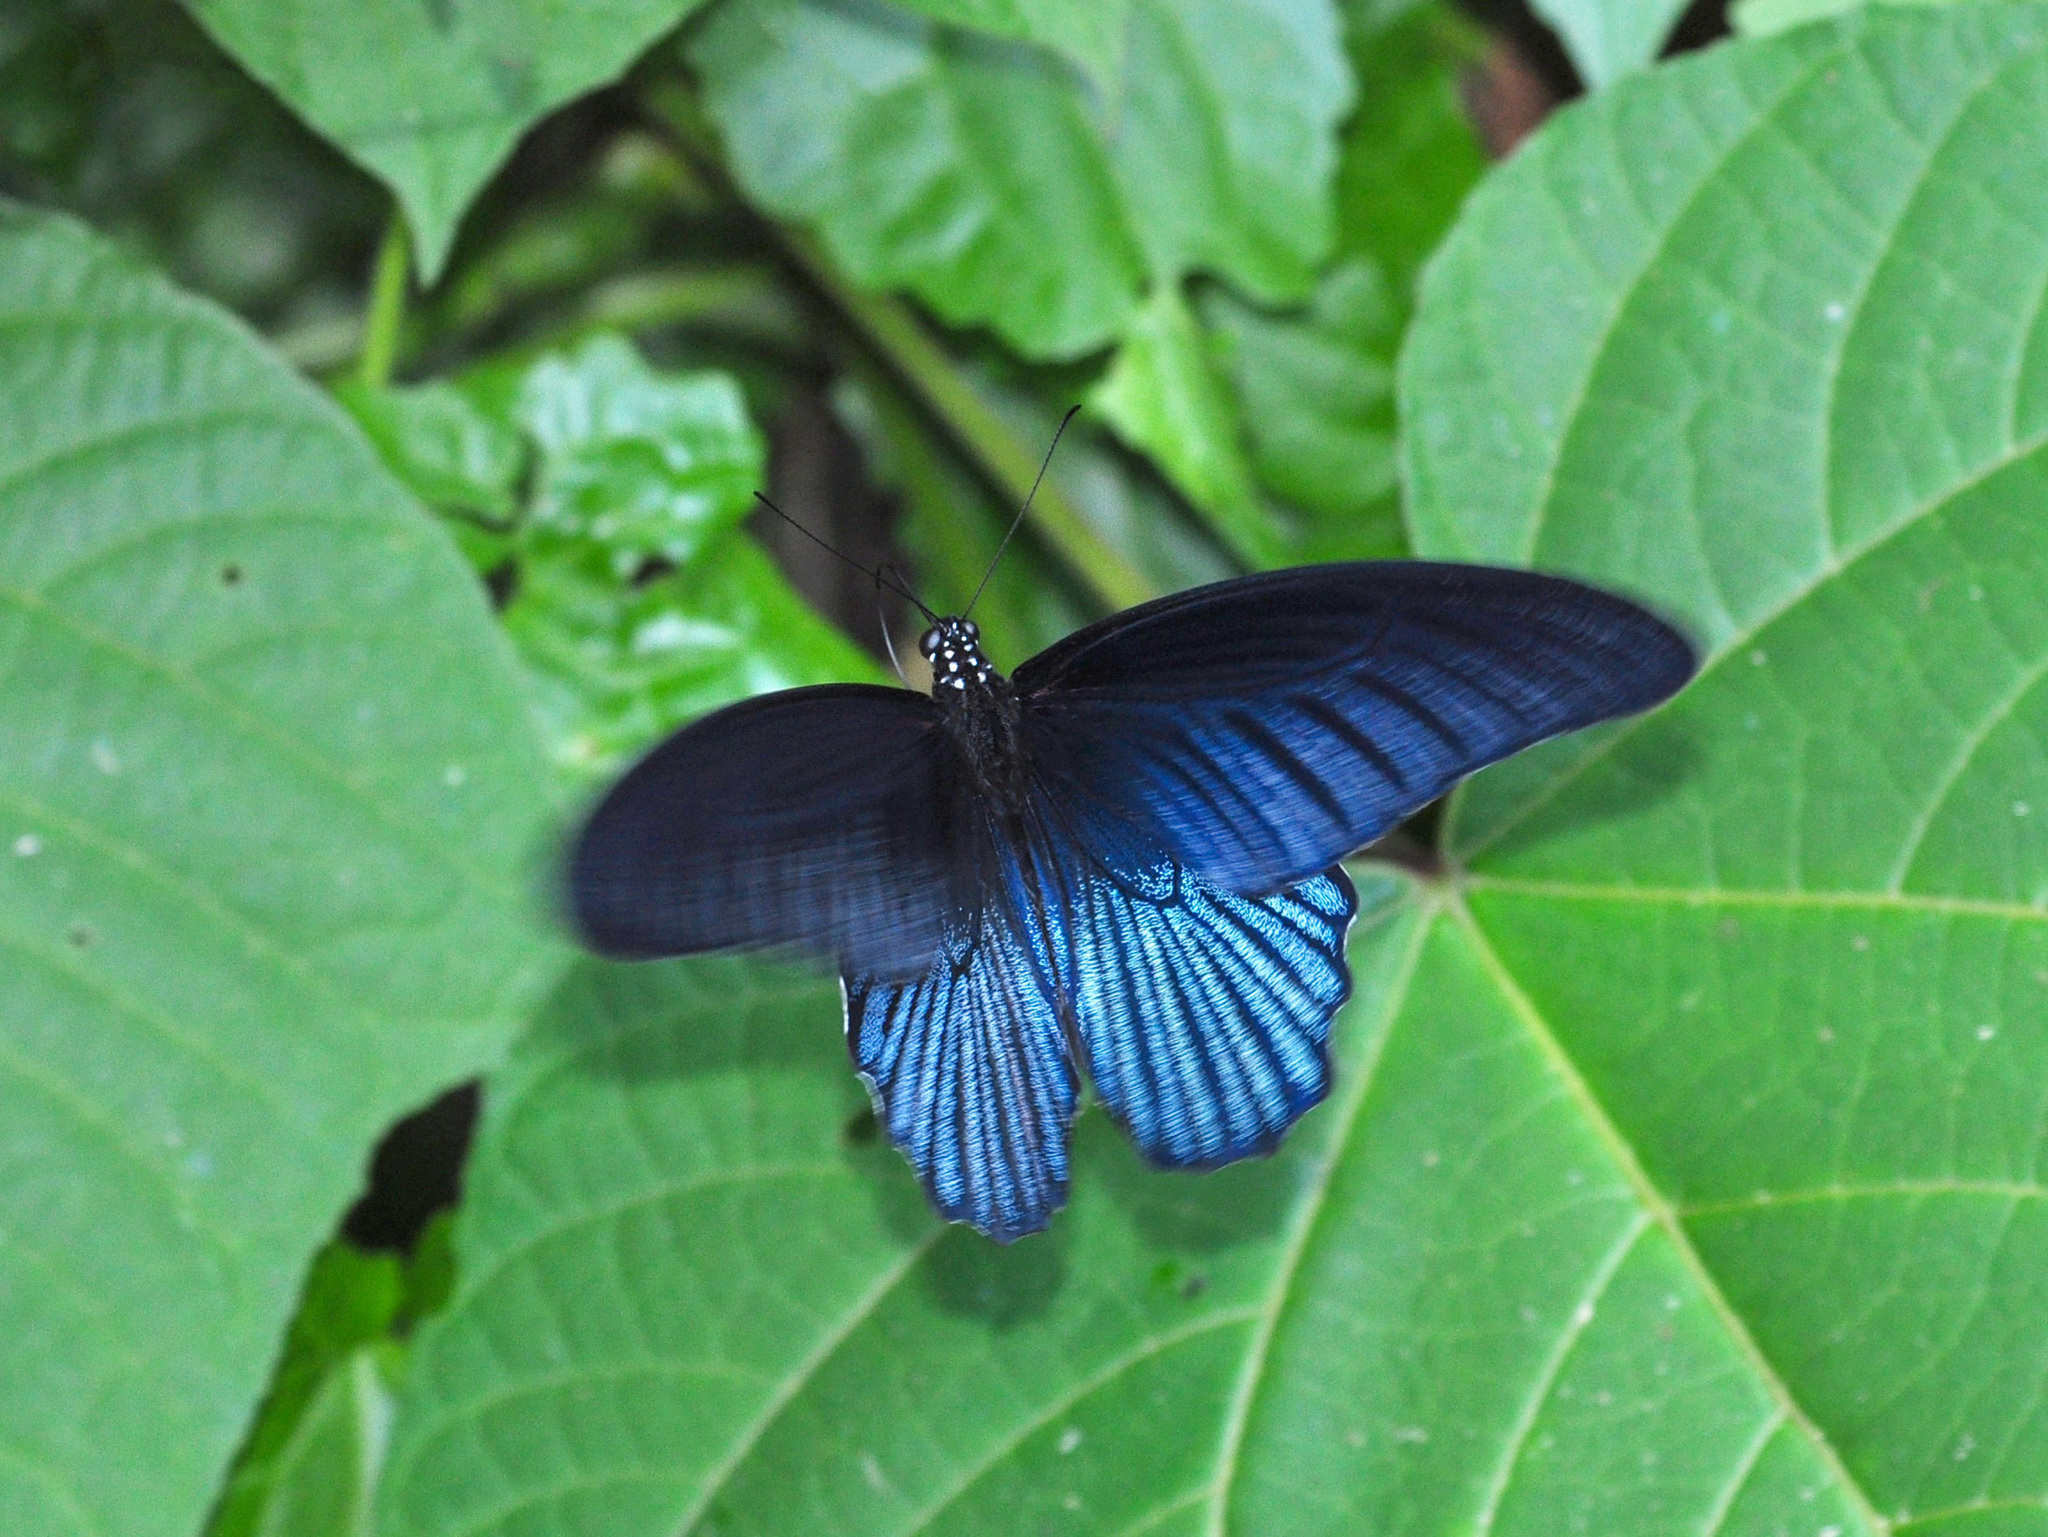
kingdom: Animalia
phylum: Arthropoda
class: Insecta
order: Lepidoptera
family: Papilionidae
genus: Papilio
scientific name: Papilio memnon
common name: Great mormon
